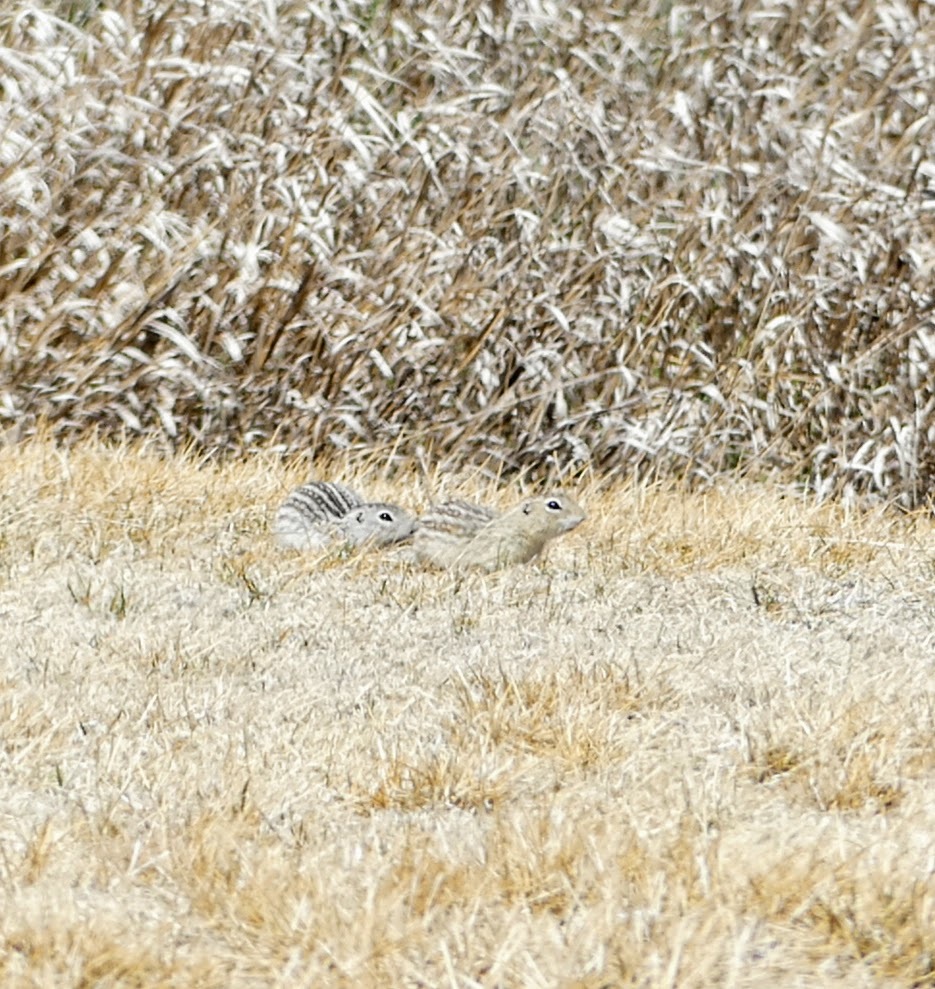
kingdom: Animalia
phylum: Chordata
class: Mammalia
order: Rodentia
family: Sciuridae
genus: Ictidomys
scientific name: Ictidomys tridecemlineatus
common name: Thirteen-lined ground squirrel
